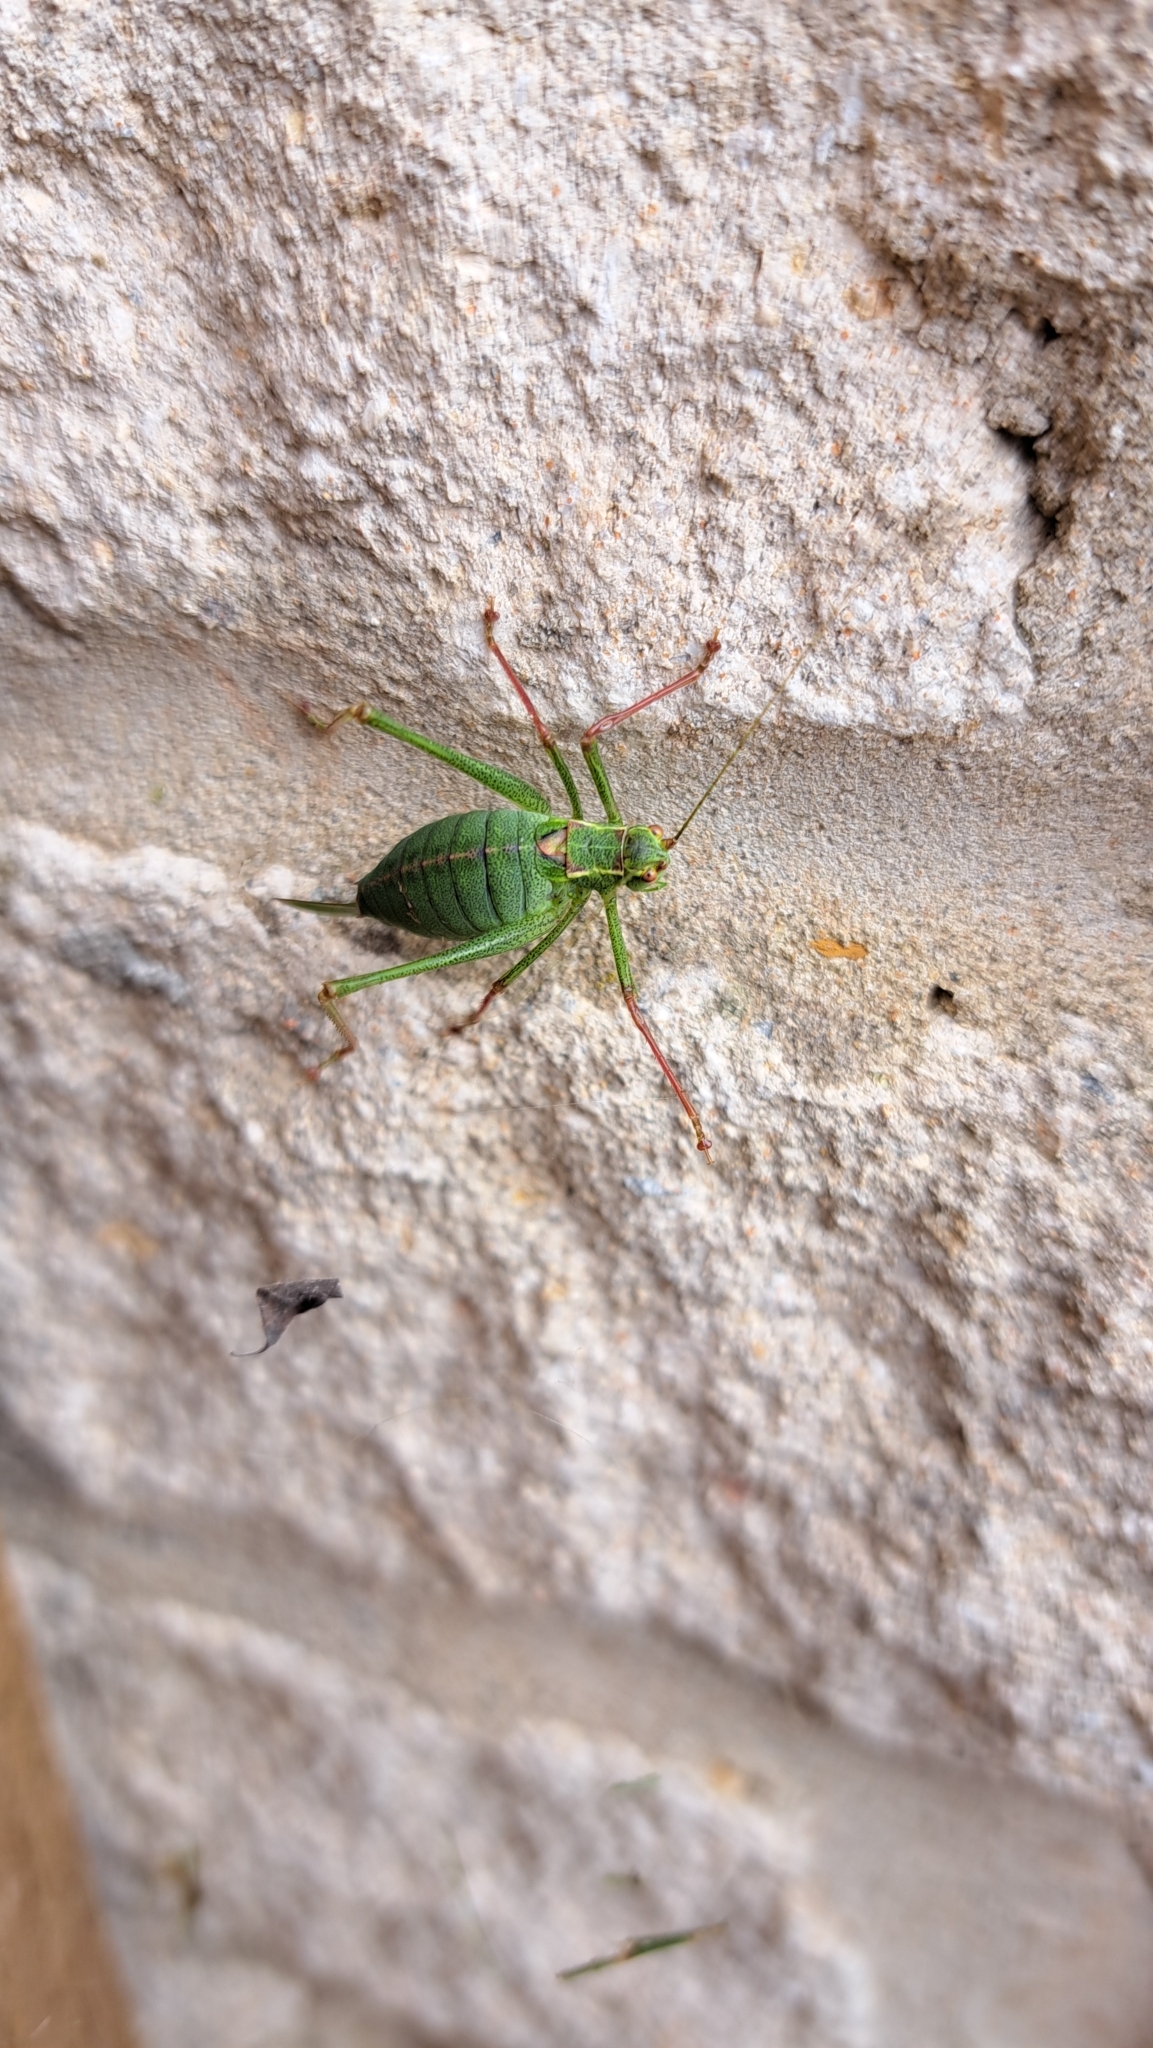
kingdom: Animalia
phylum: Arthropoda
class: Insecta
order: Orthoptera
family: Tettigoniidae
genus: Leptophyes
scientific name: Leptophyes punctatissima
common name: Speckled bush-cricket
